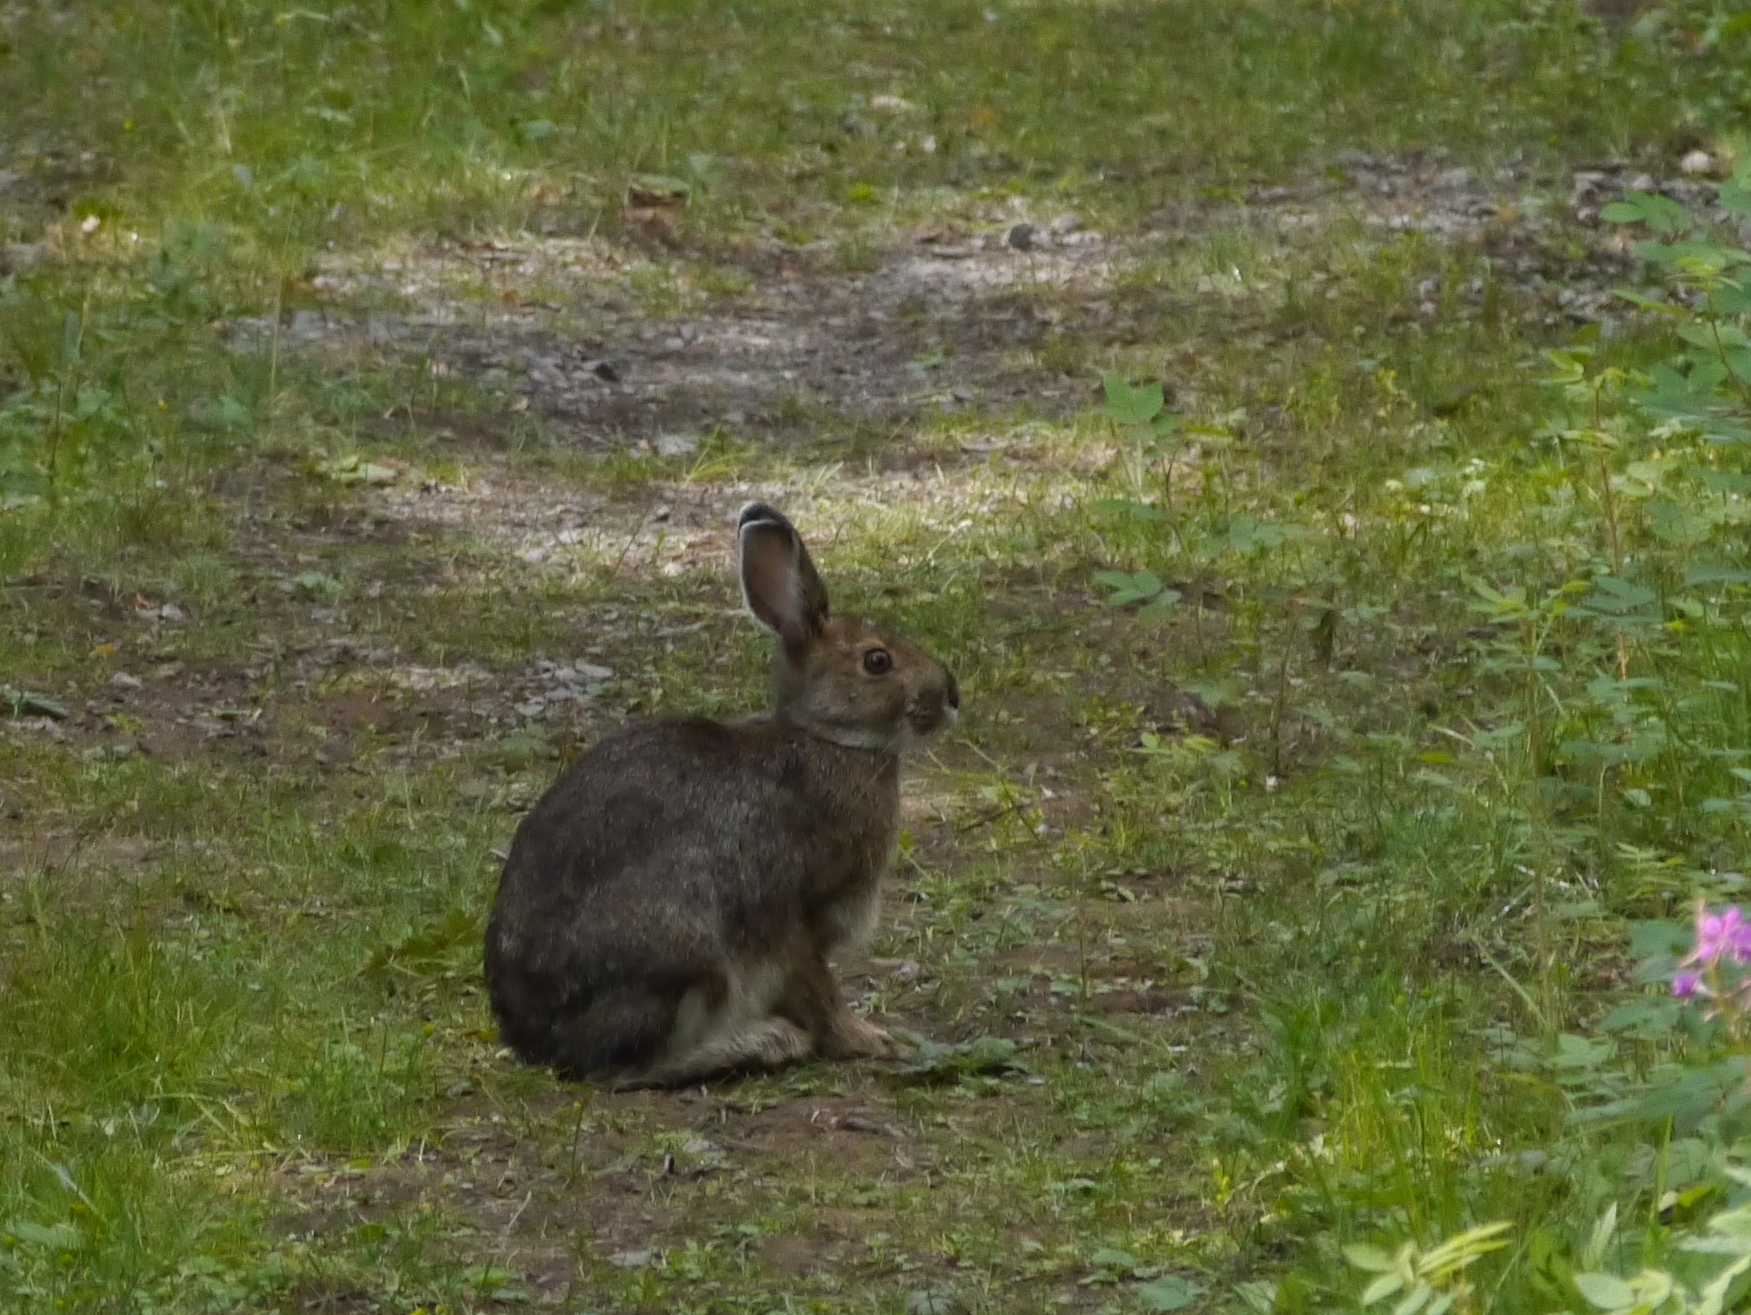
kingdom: Animalia
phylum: Chordata
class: Mammalia
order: Lagomorpha
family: Leporidae
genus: Lepus
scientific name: Lepus americanus
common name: Snowshoe hare
